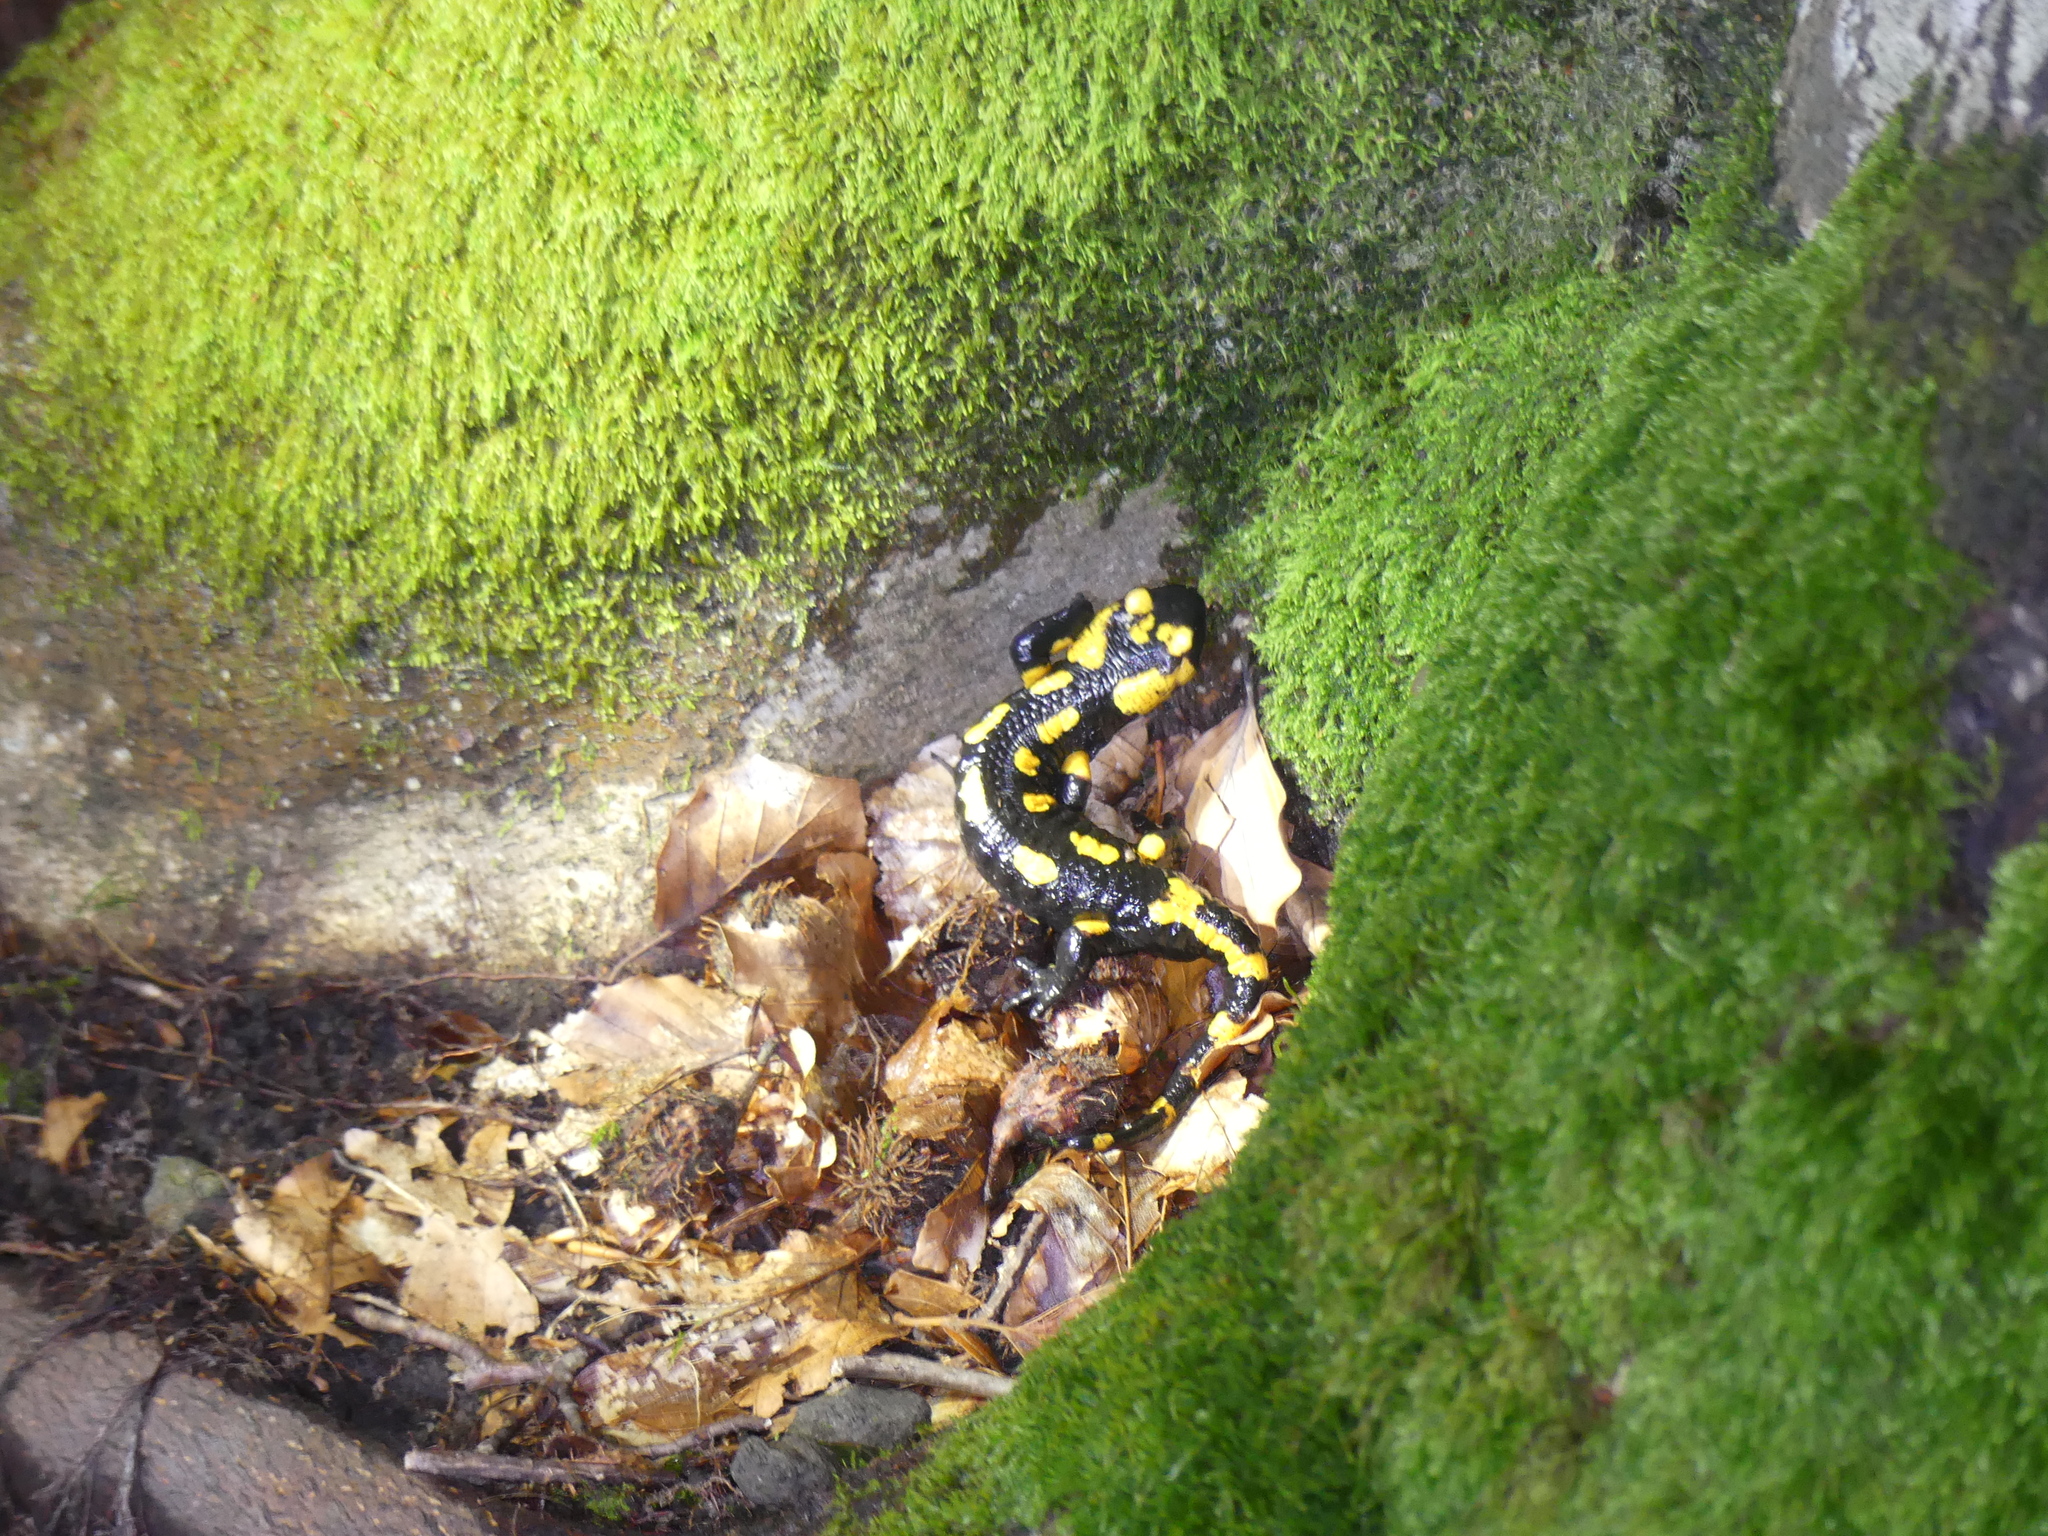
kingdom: Animalia
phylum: Chordata
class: Amphibia
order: Caudata
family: Salamandridae
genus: Salamandra
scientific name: Salamandra salamandra
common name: Fire salamander
